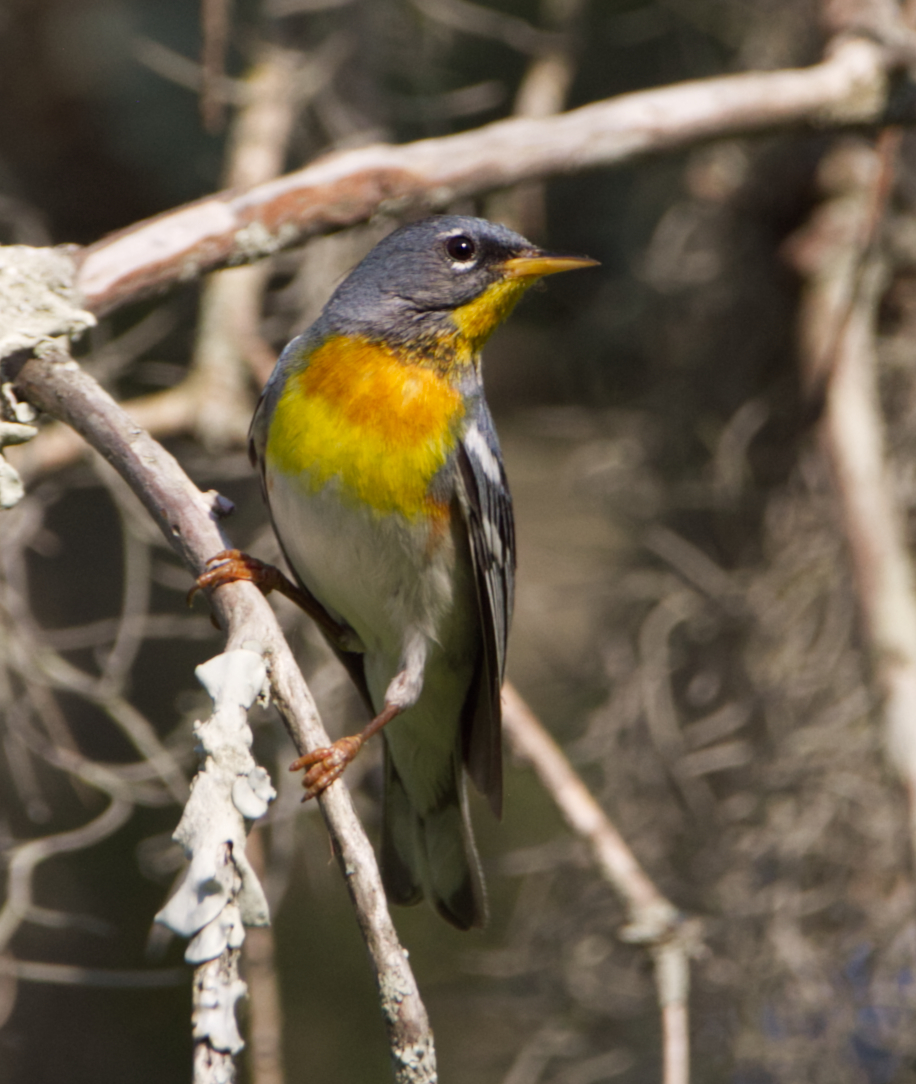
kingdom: Animalia
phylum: Chordata
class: Aves
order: Passeriformes
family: Parulidae
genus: Setophaga
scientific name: Setophaga americana
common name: Northern parula
